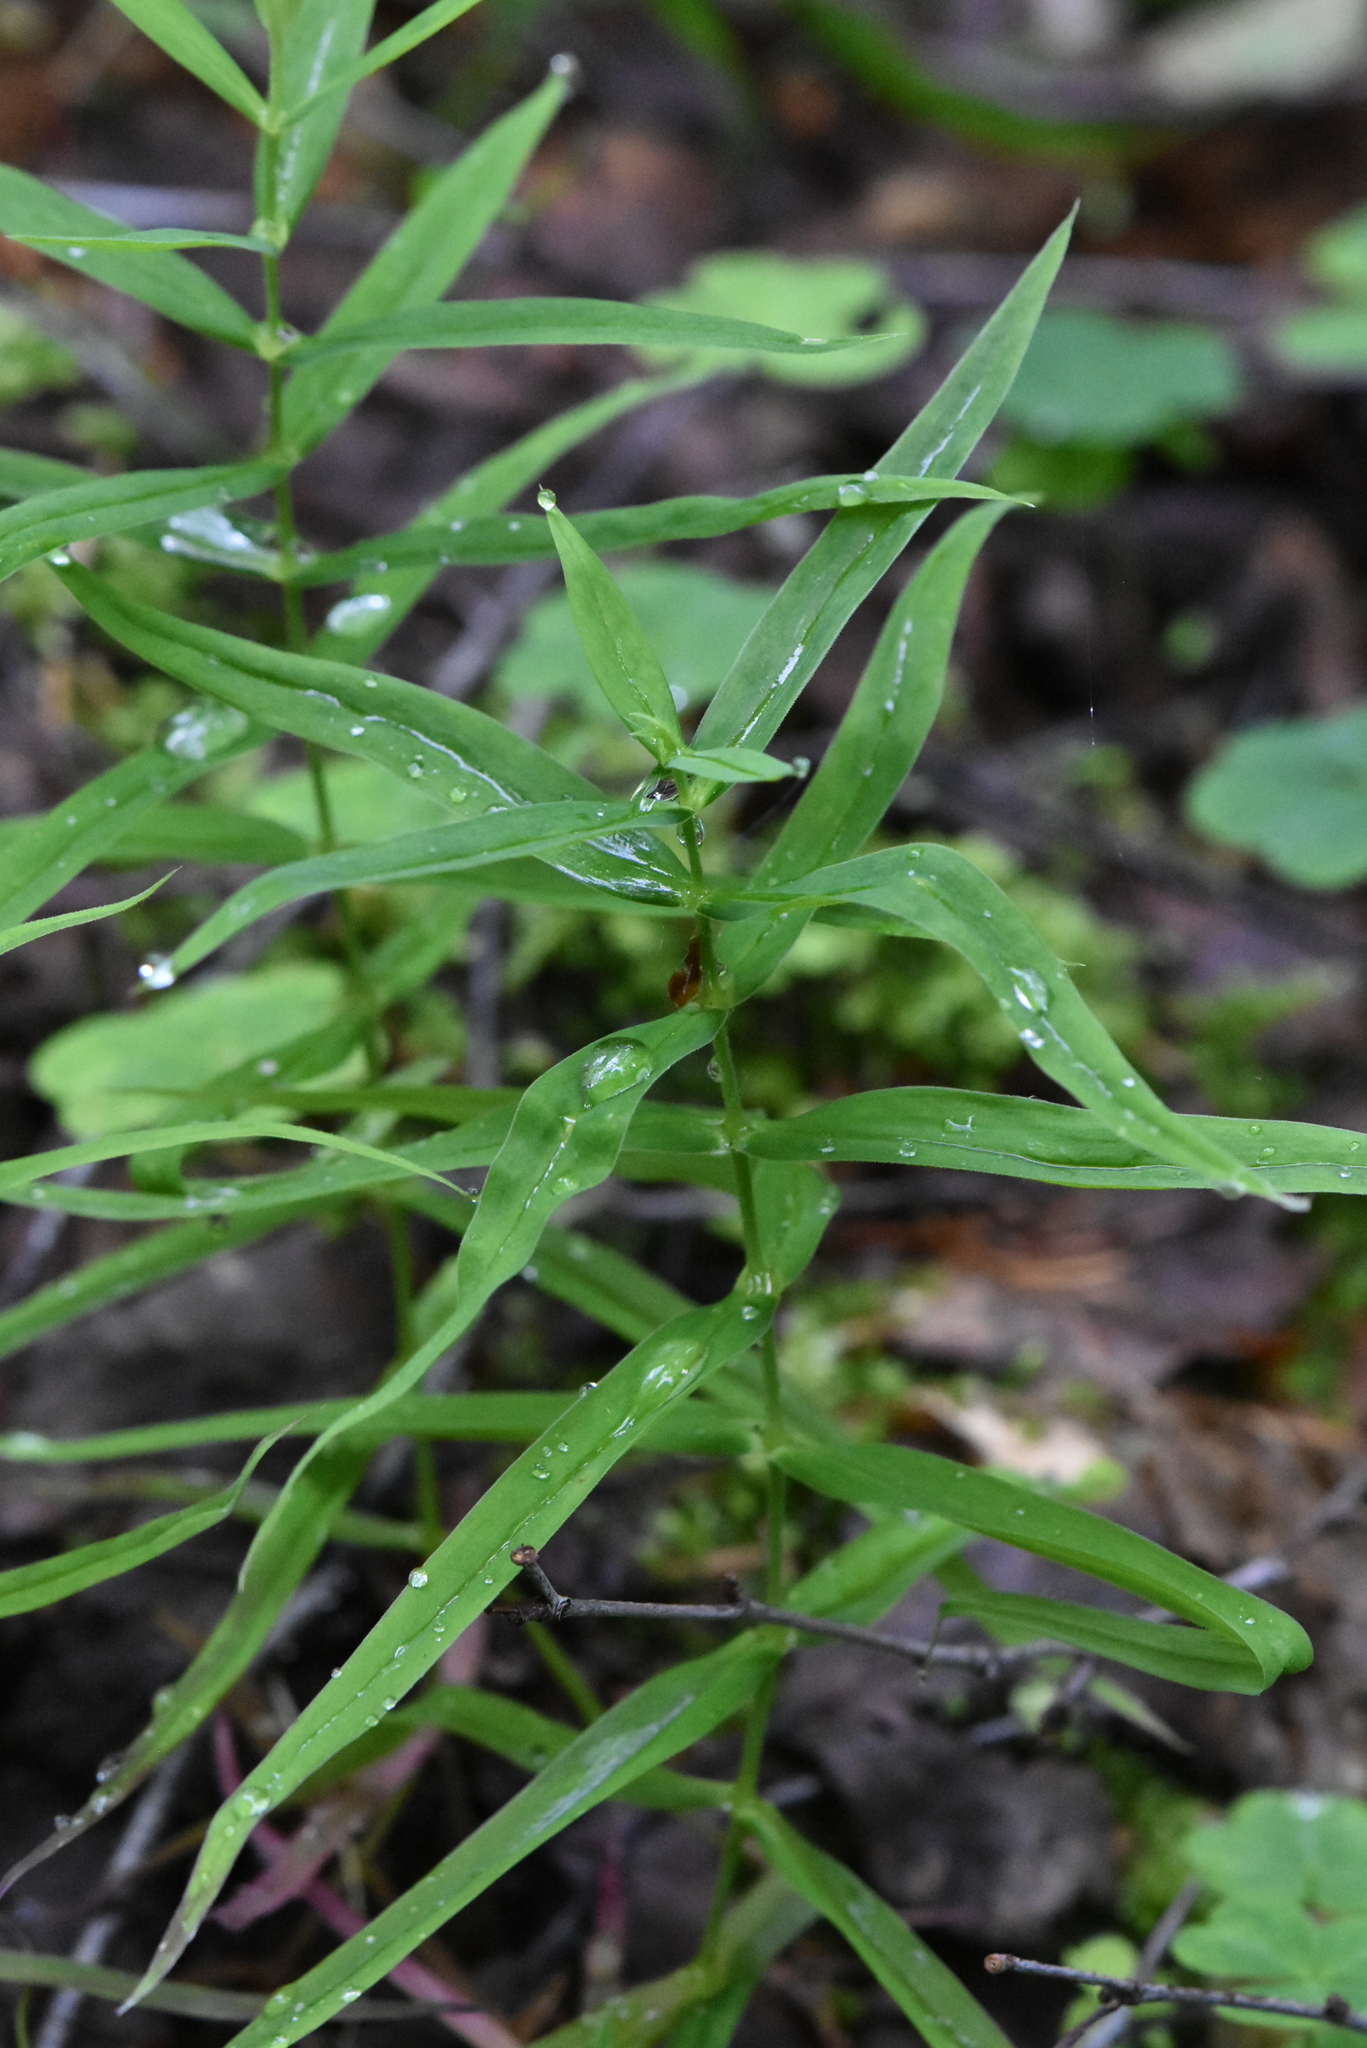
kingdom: Plantae
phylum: Tracheophyta
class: Magnoliopsida
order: Caryophyllales
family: Caryophyllaceae
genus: Rabelera
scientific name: Rabelera holostea
